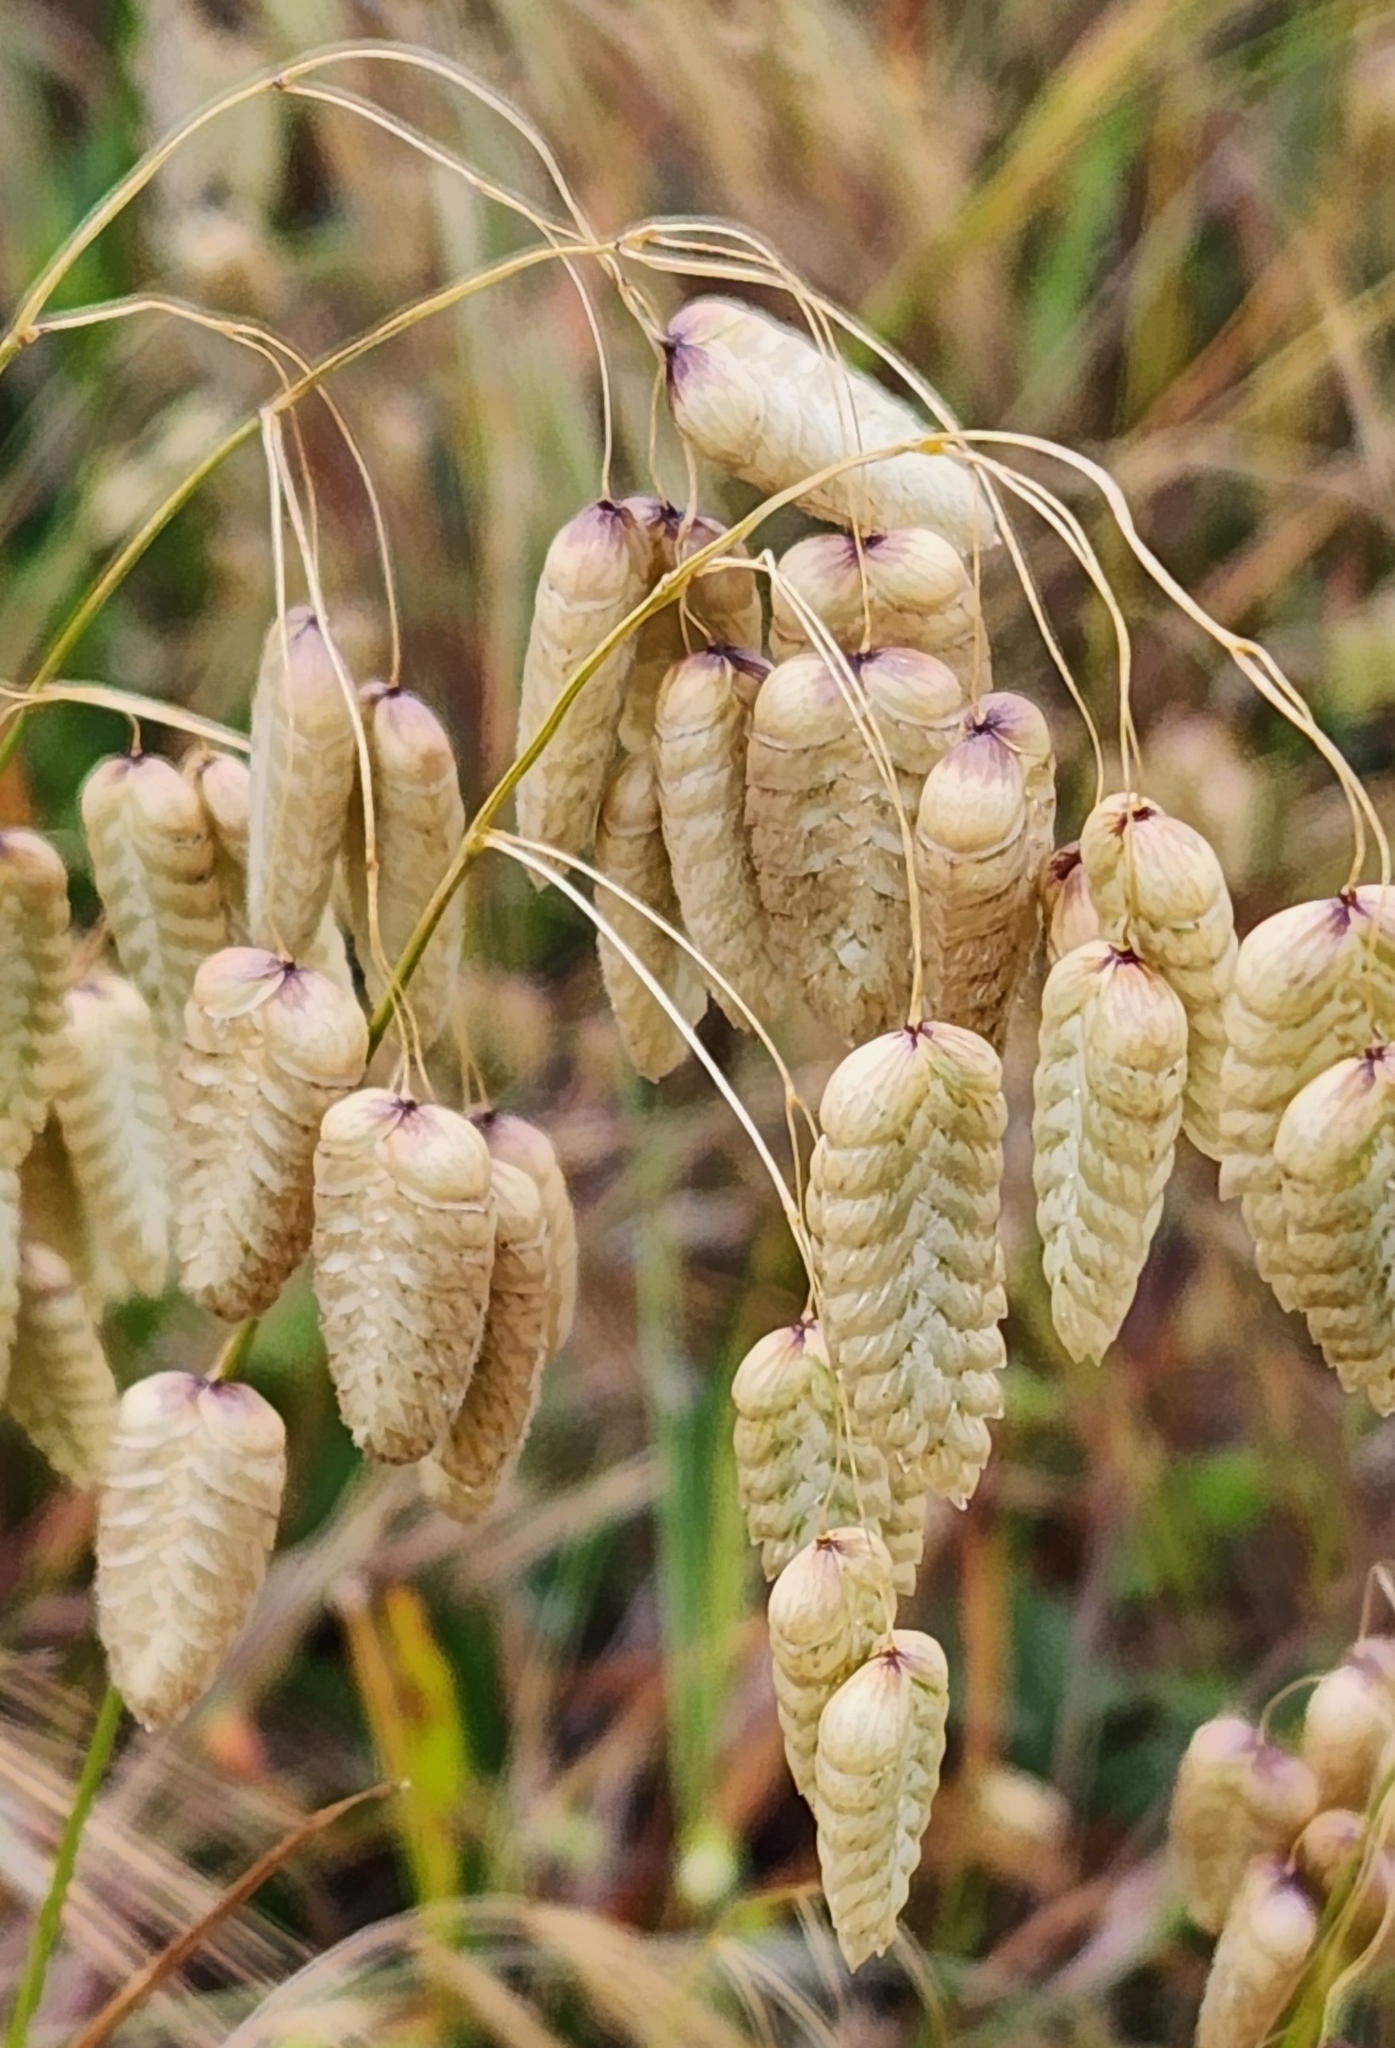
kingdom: Plantae
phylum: Tracheophyta
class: Liliopsida
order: Poales
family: Poaceae
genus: Briza
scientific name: Briza maxima
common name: Big quakinggrass
